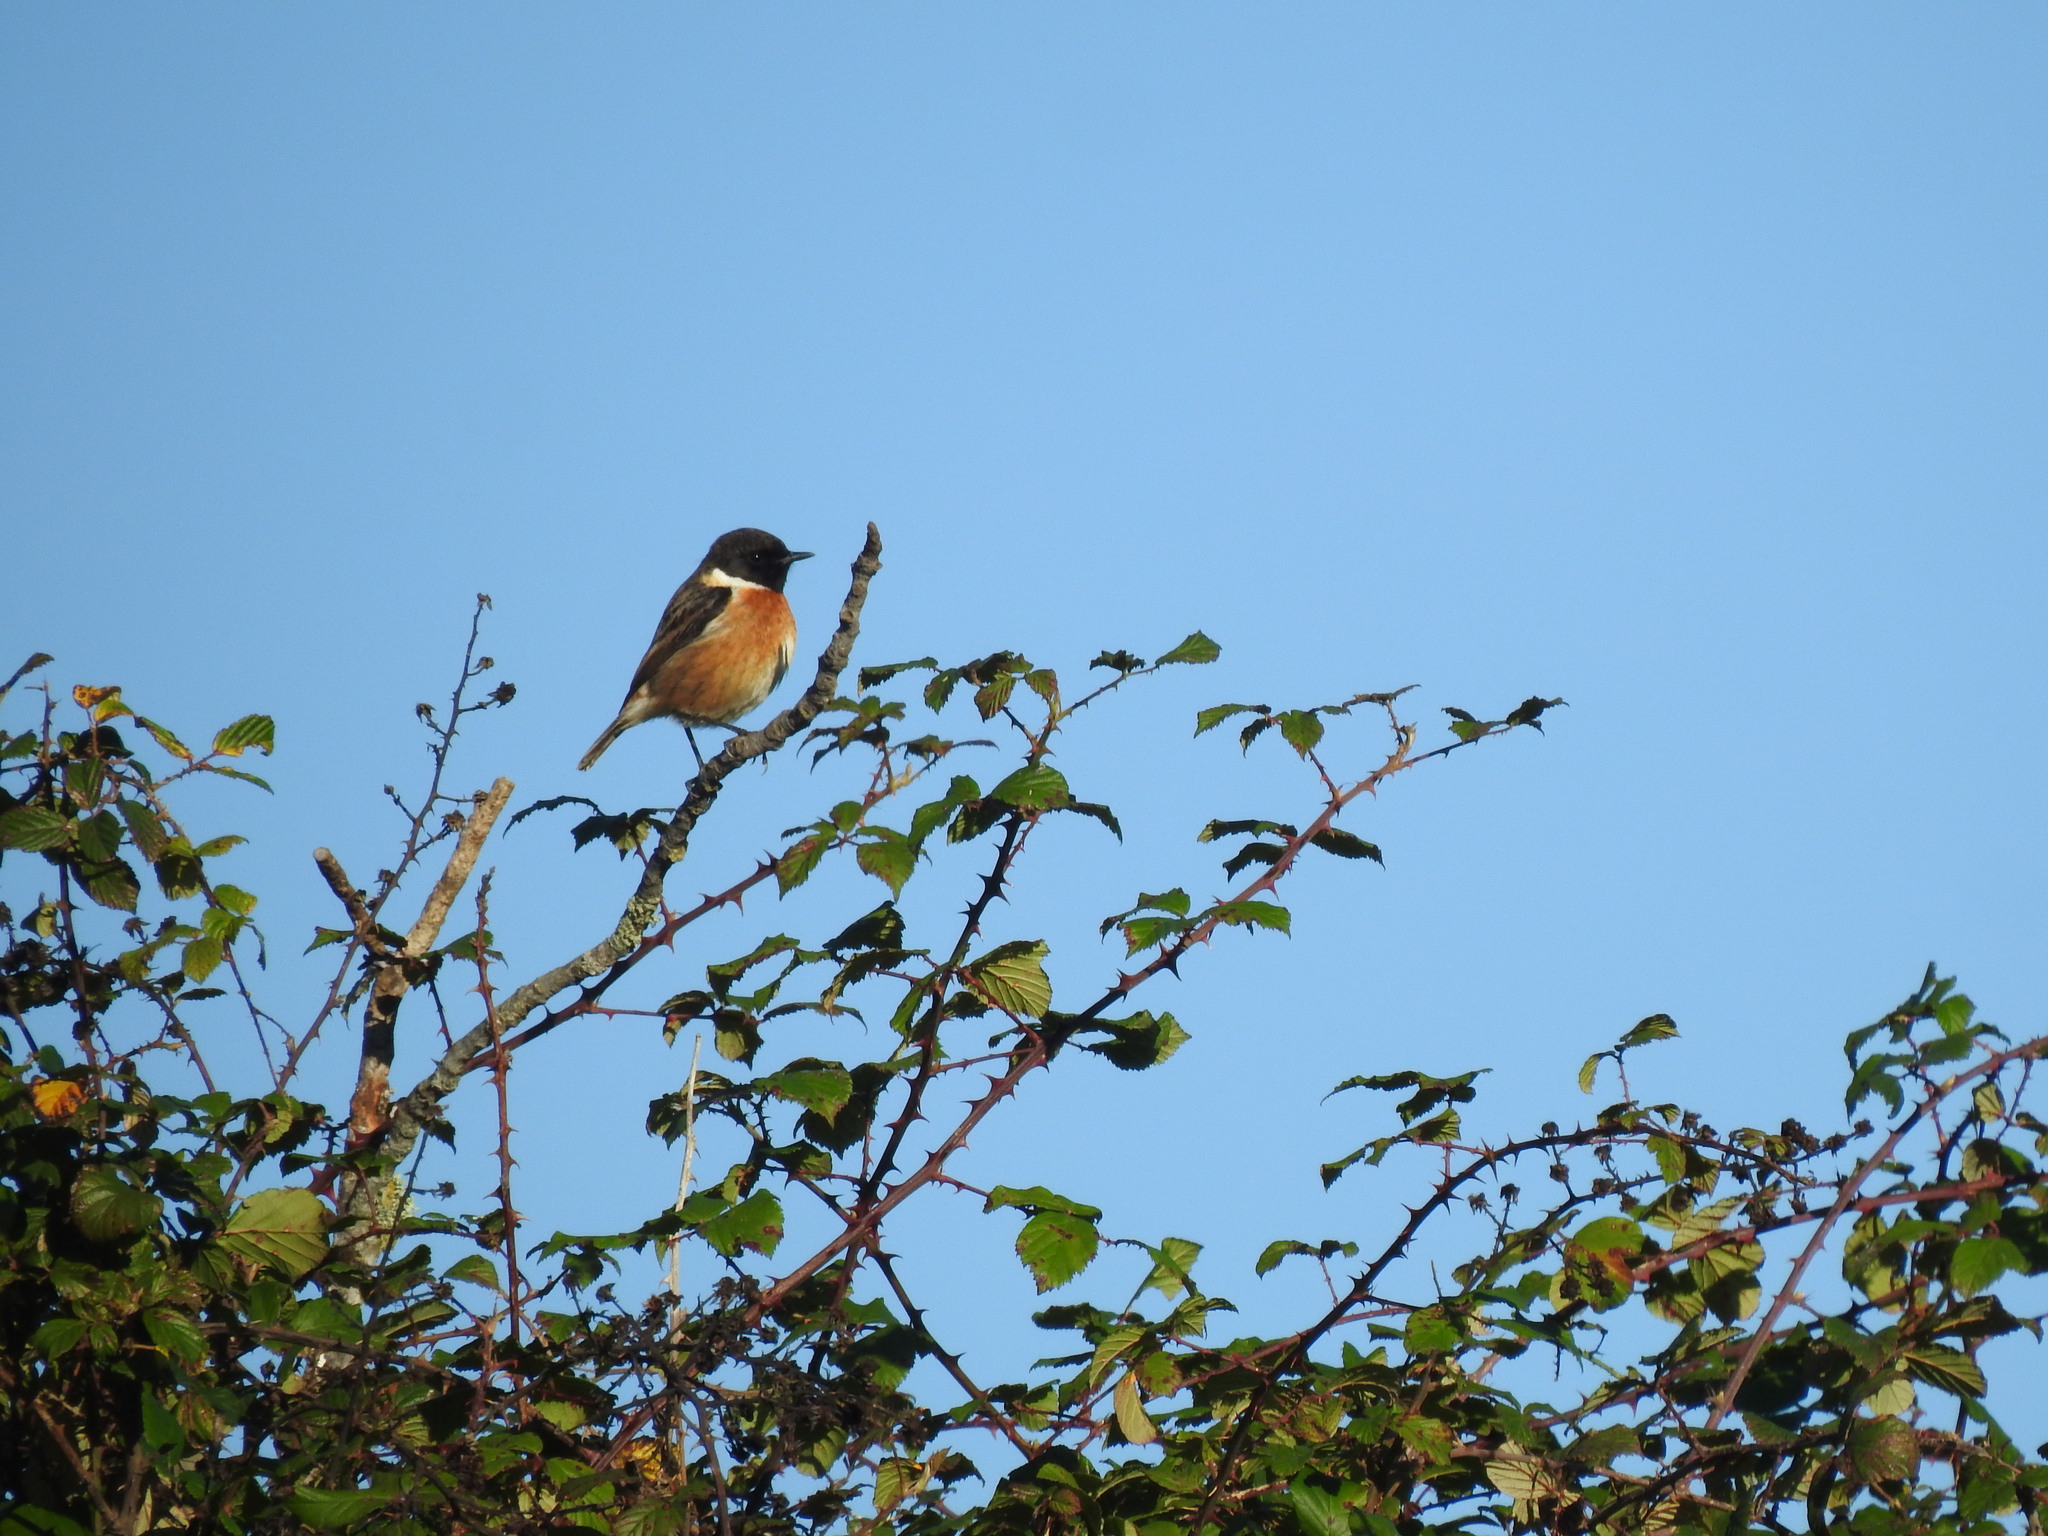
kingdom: Animalia
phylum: Chordata
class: Aves
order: Passeriformes
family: Muscicapidae
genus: Saxicola
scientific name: Saxicola rubicola
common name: European stonechat
